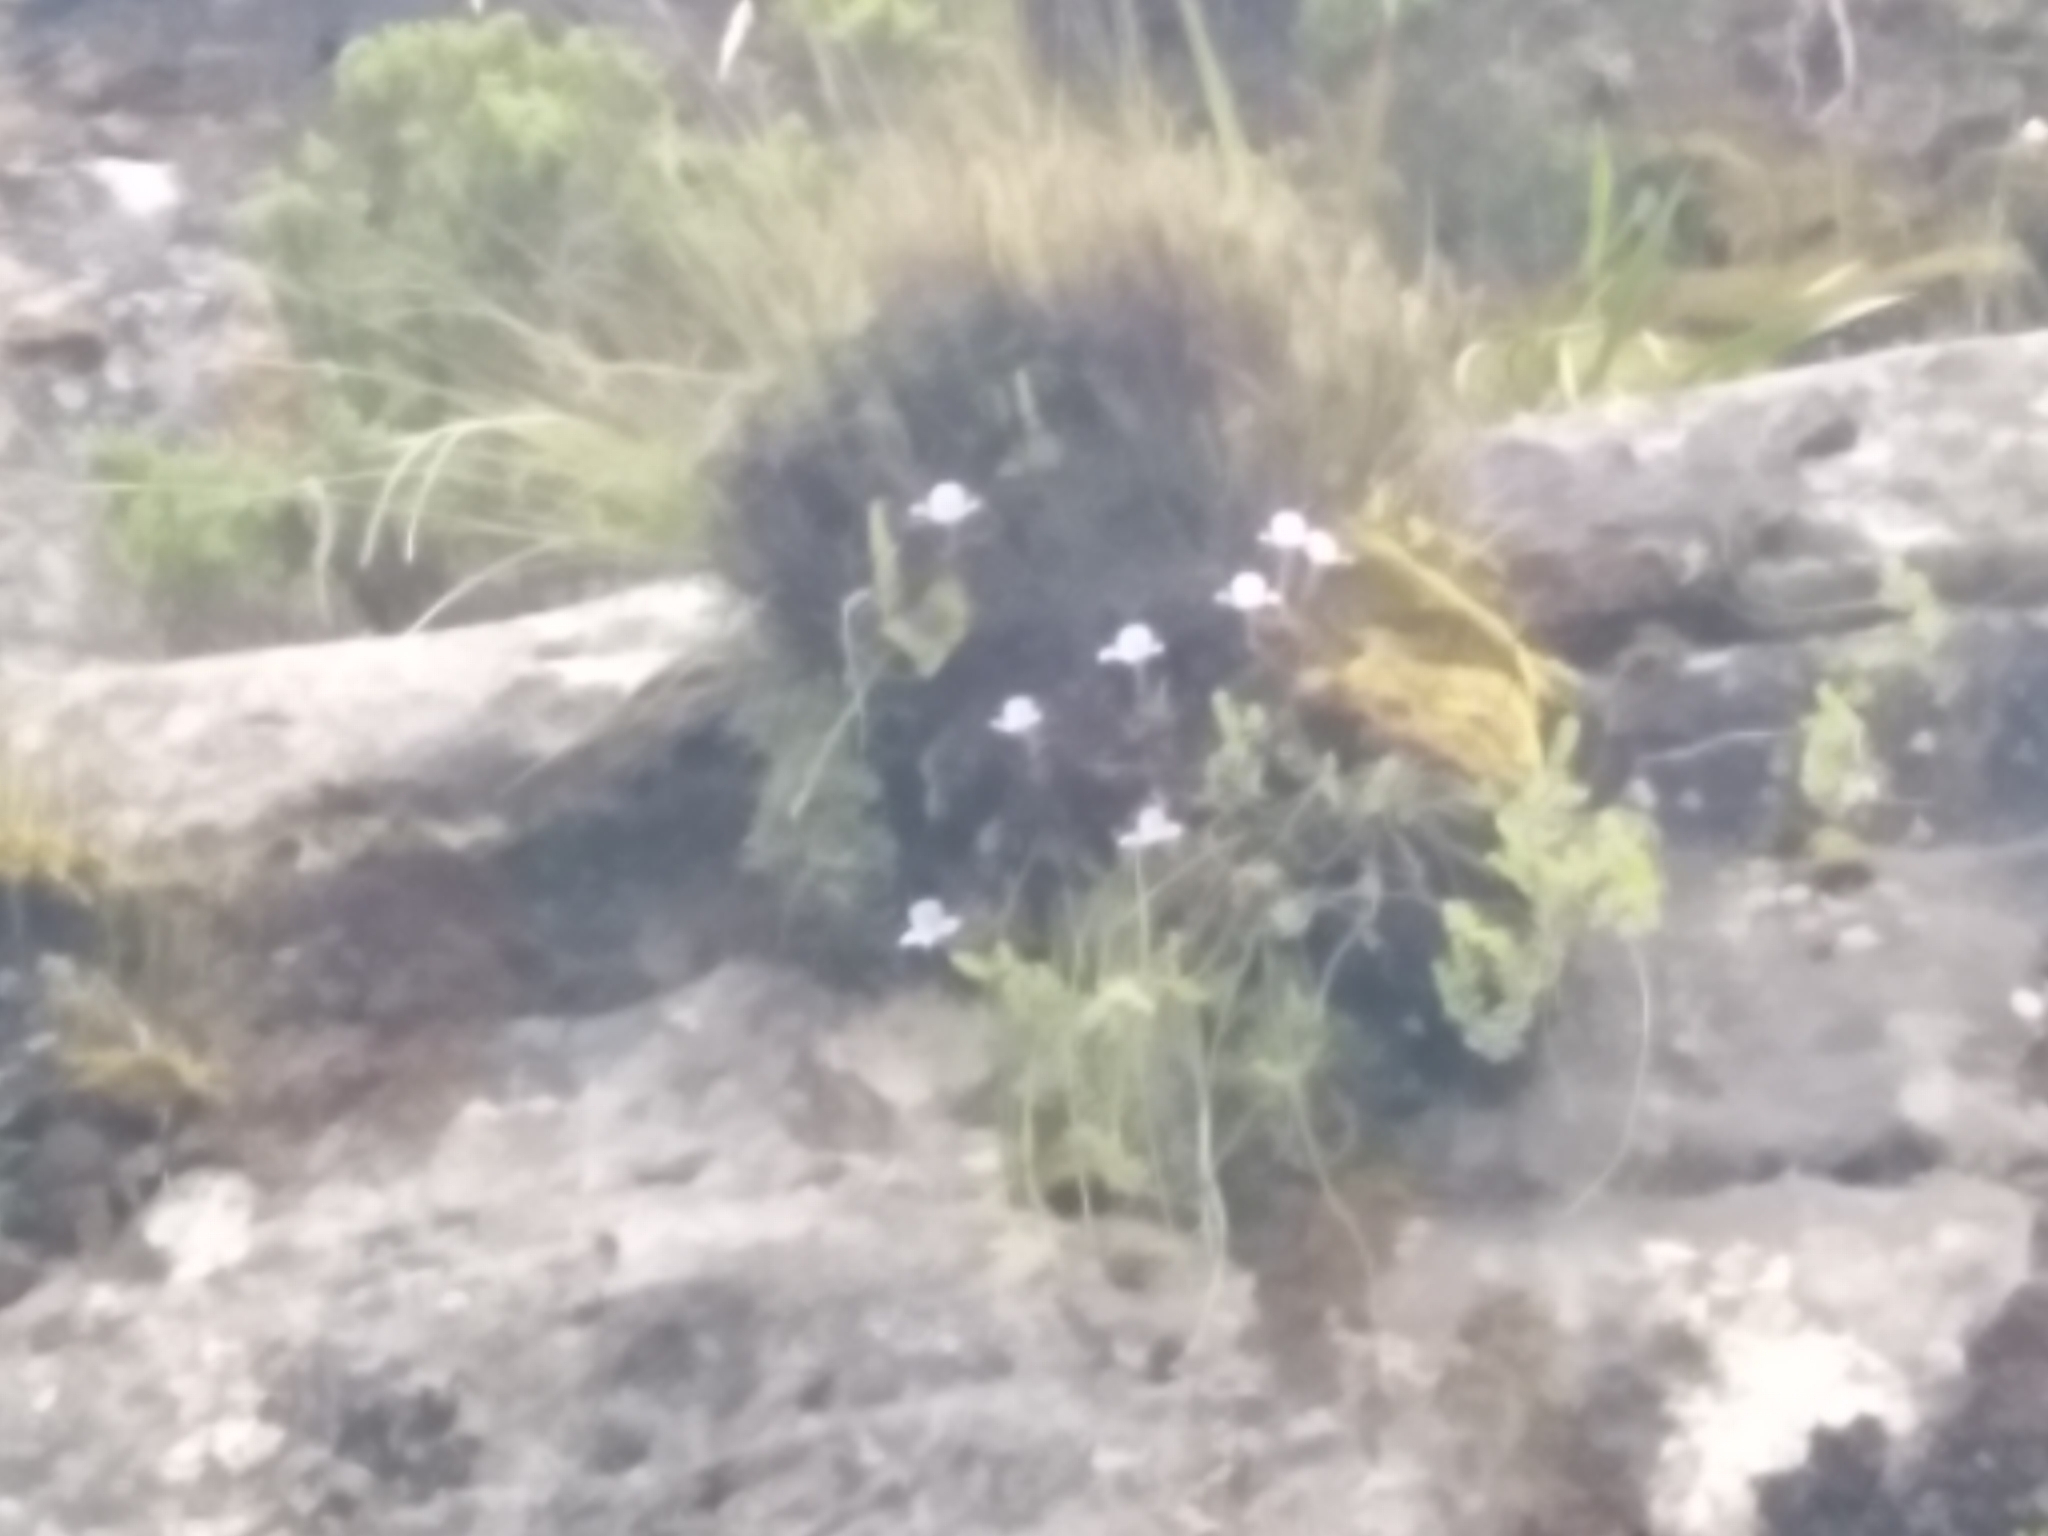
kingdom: Plantae
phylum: Tracheophyta
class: Liliopsida
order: Asparagales
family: Orchidaceae
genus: Disa
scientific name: Disa longicornu
